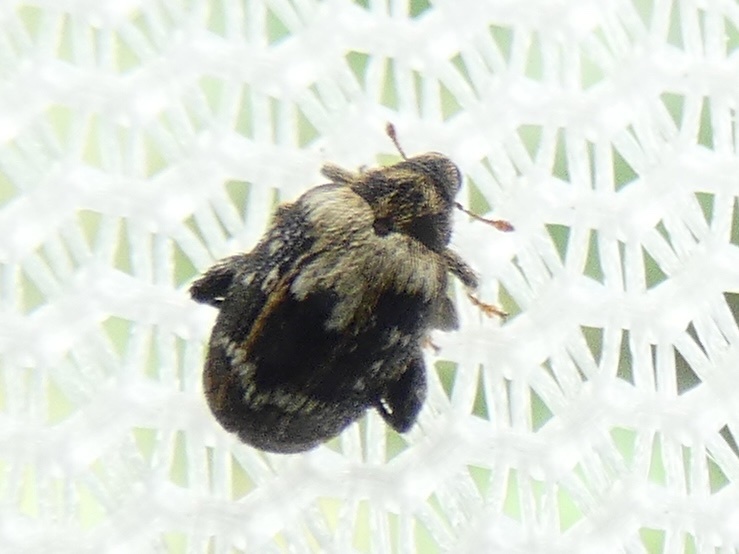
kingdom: Animalia
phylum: Arthropoda
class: Insecta
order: Coleoptera
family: Curculionidae
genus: Orchestes
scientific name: Orchestes hortorum
